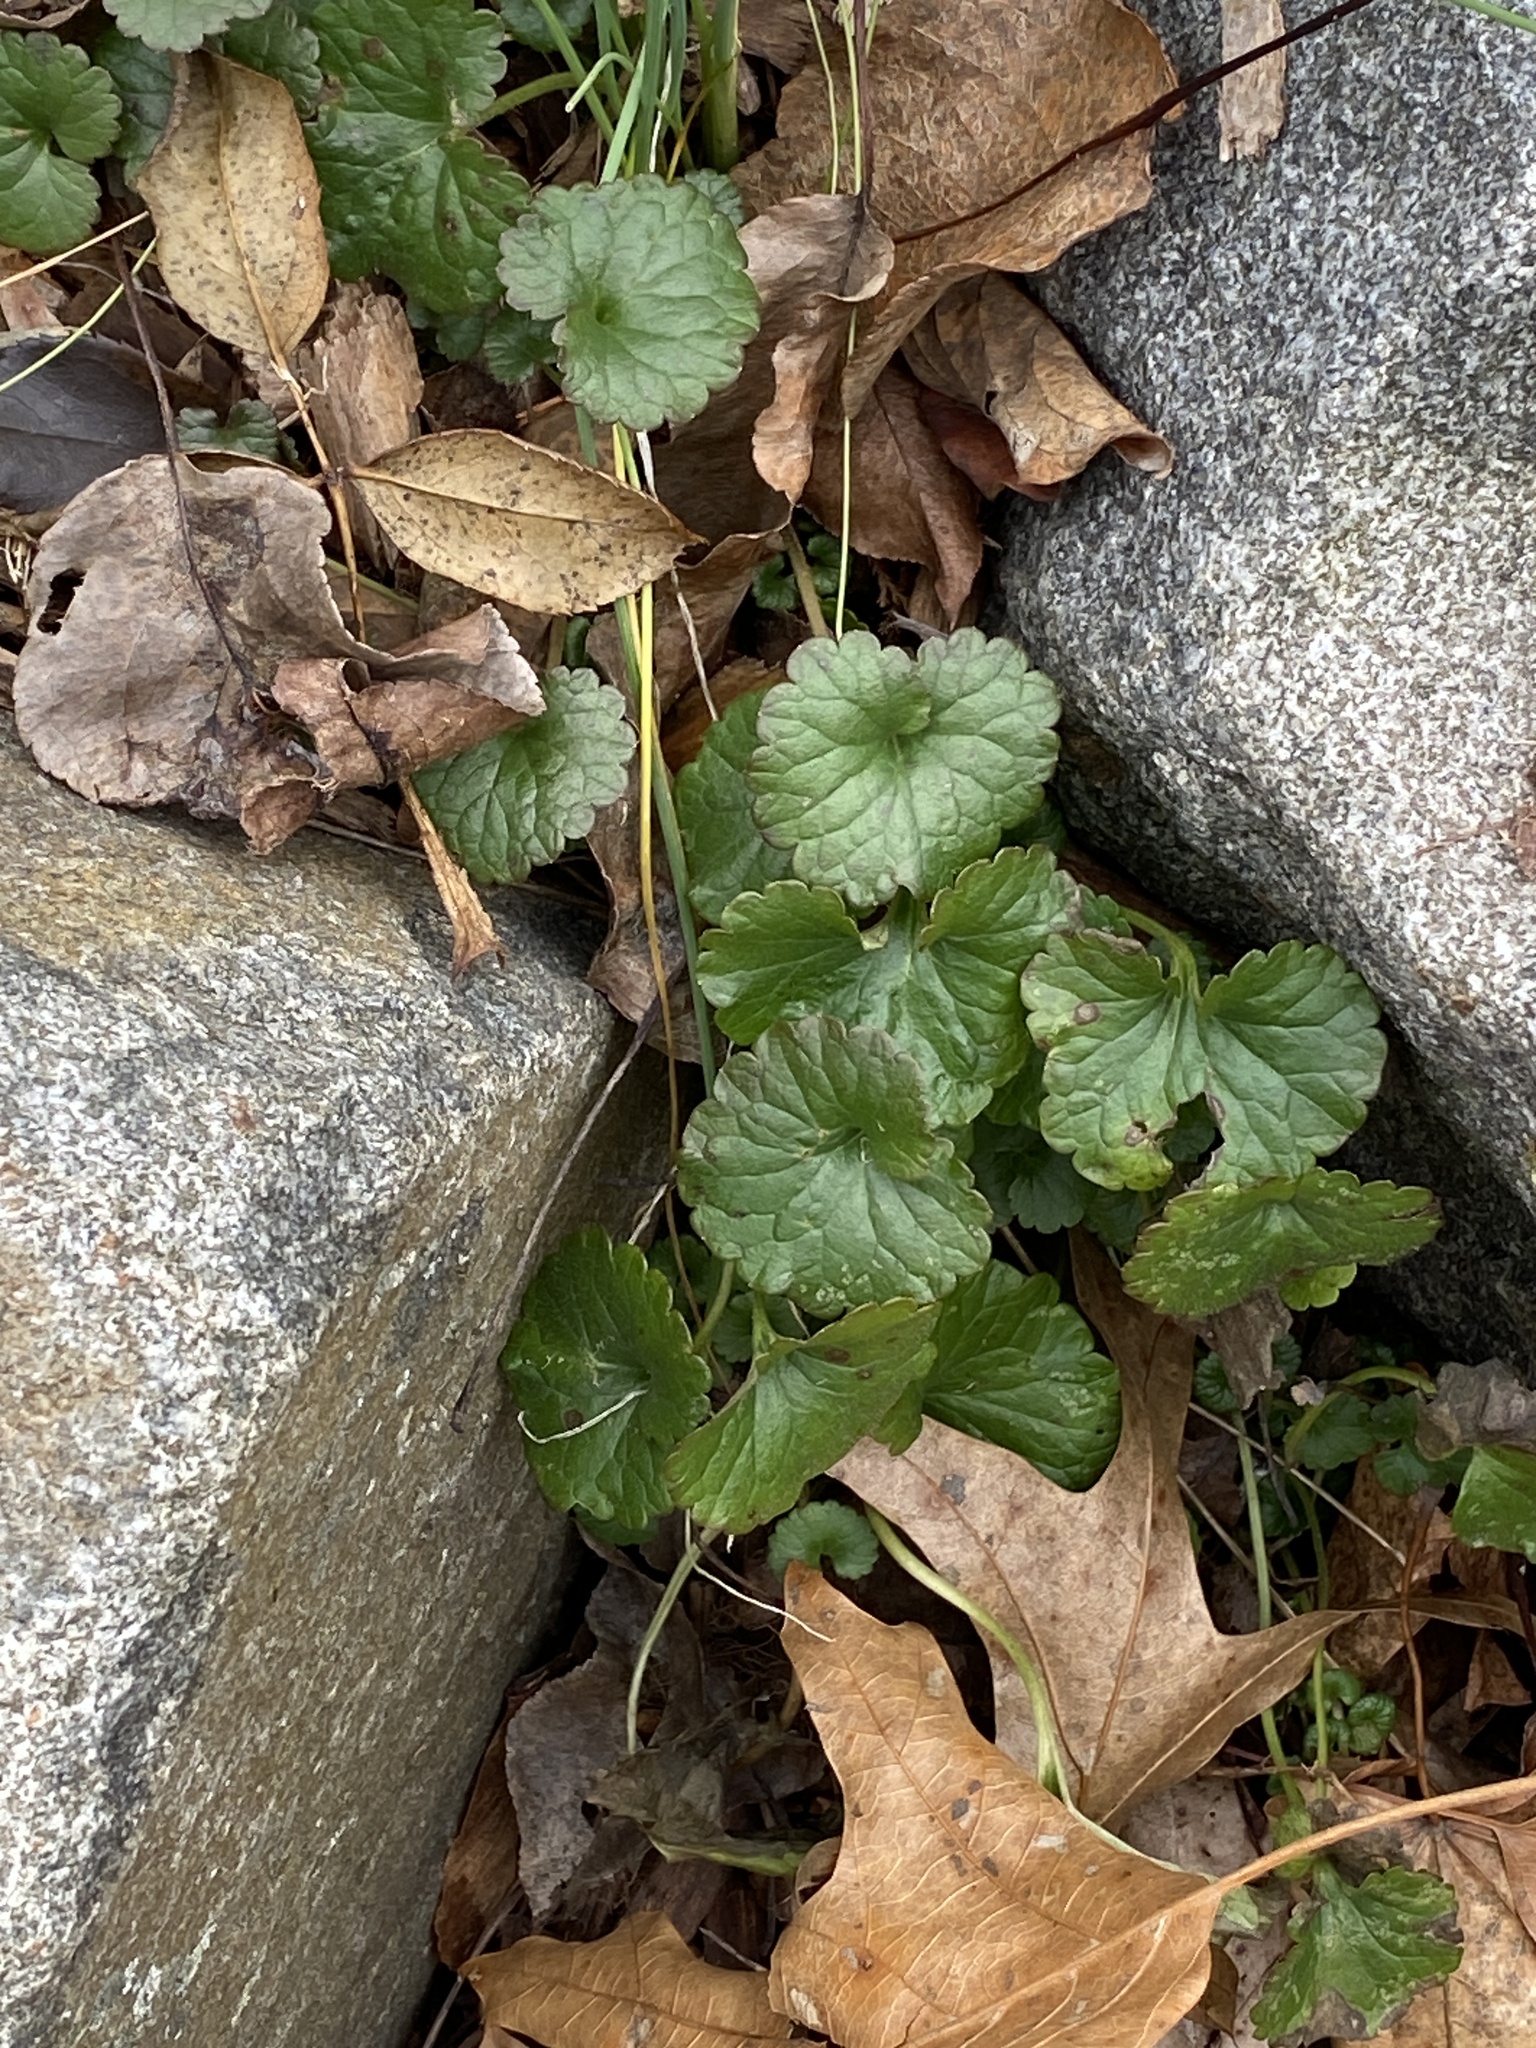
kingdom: Plantae
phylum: Tracheophyta
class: Magnoliopsida
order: Lamiales
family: Lamiaceae
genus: Glechoma
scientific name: Glechoma hederacea
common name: Ground ivy
